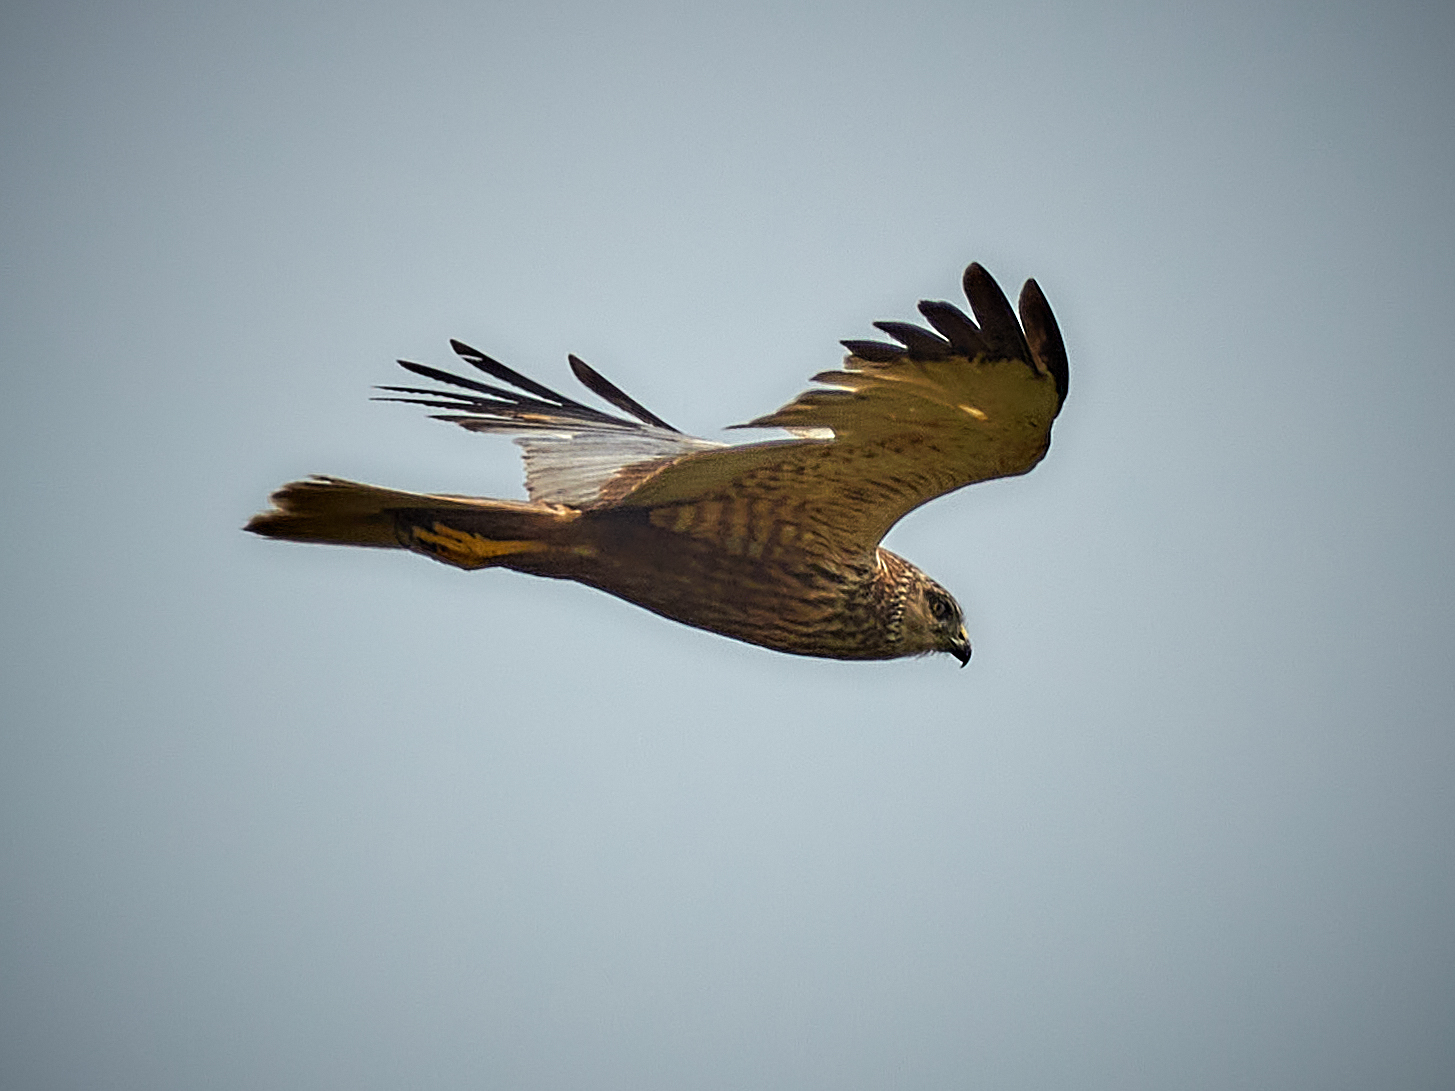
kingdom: Animalia
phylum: Chordata
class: Aves
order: Accipitriformes
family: Accipitridae
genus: Circus
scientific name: Circus aeruginosus
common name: Western marsh harrier
